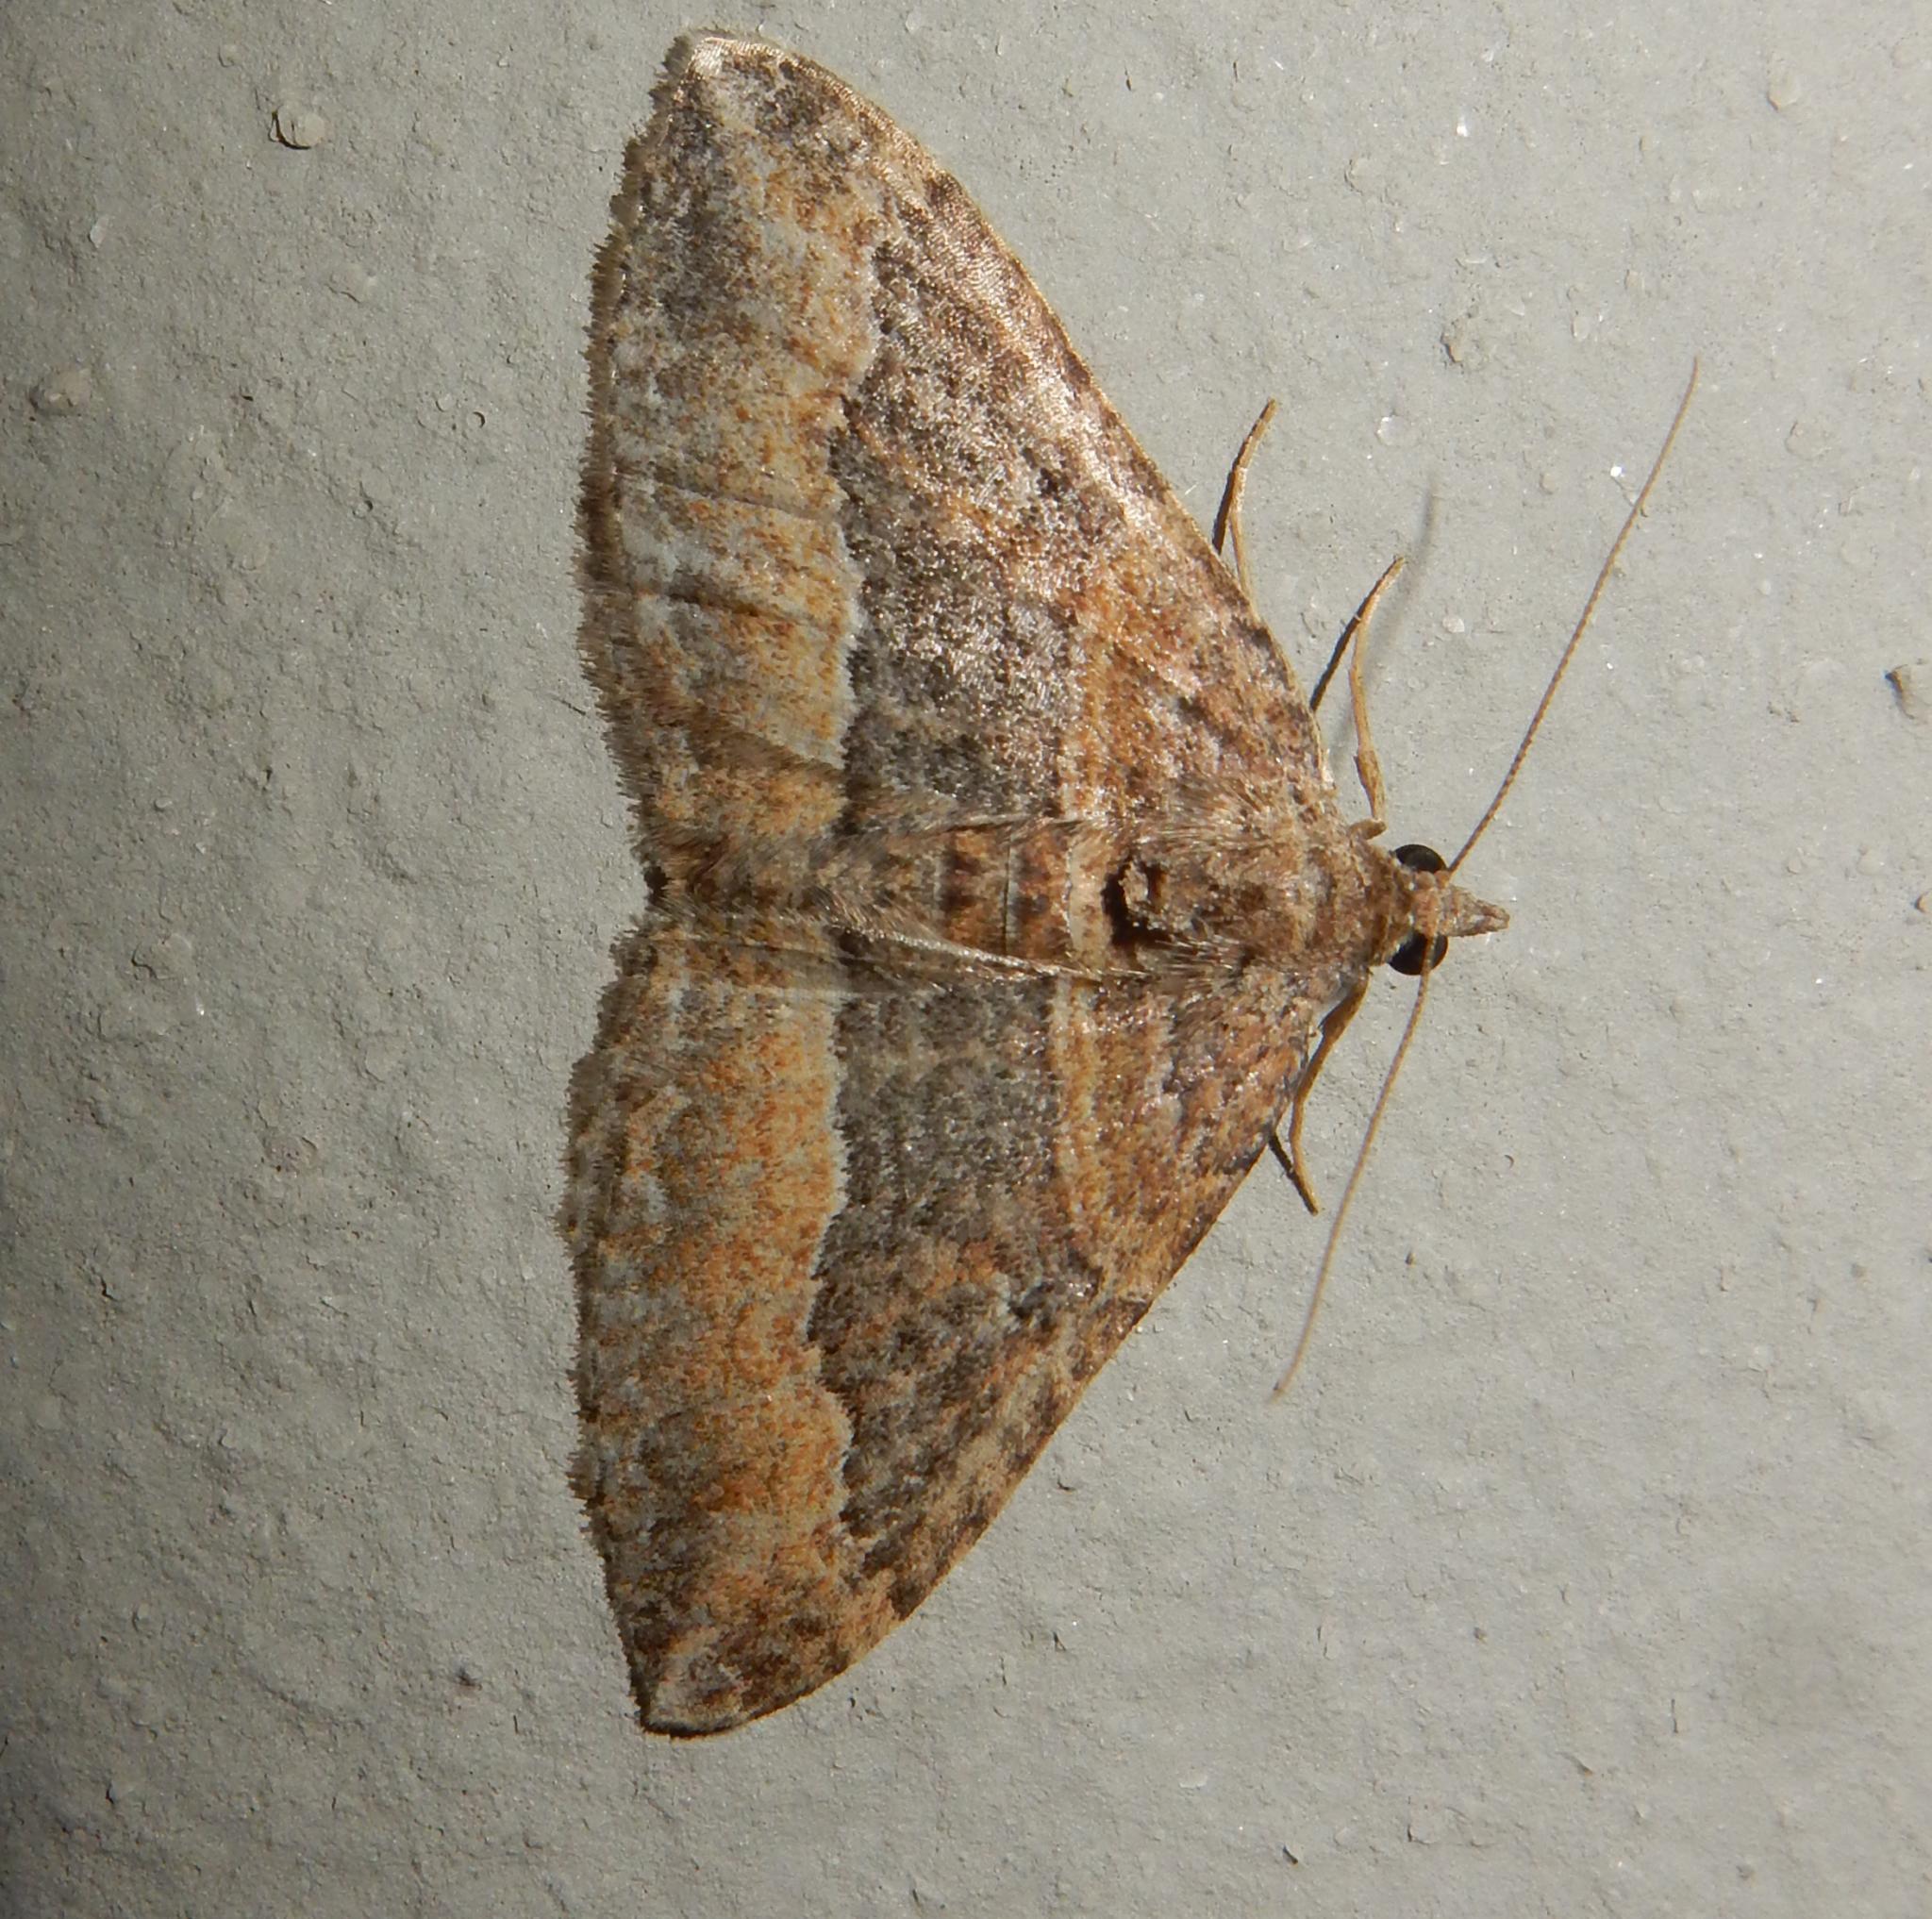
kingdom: Animalia
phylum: Arthropoda
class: Insecta
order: Lepidoptera
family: Geometridae
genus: Orthonama
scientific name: Orthonama obstipata
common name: The gem
